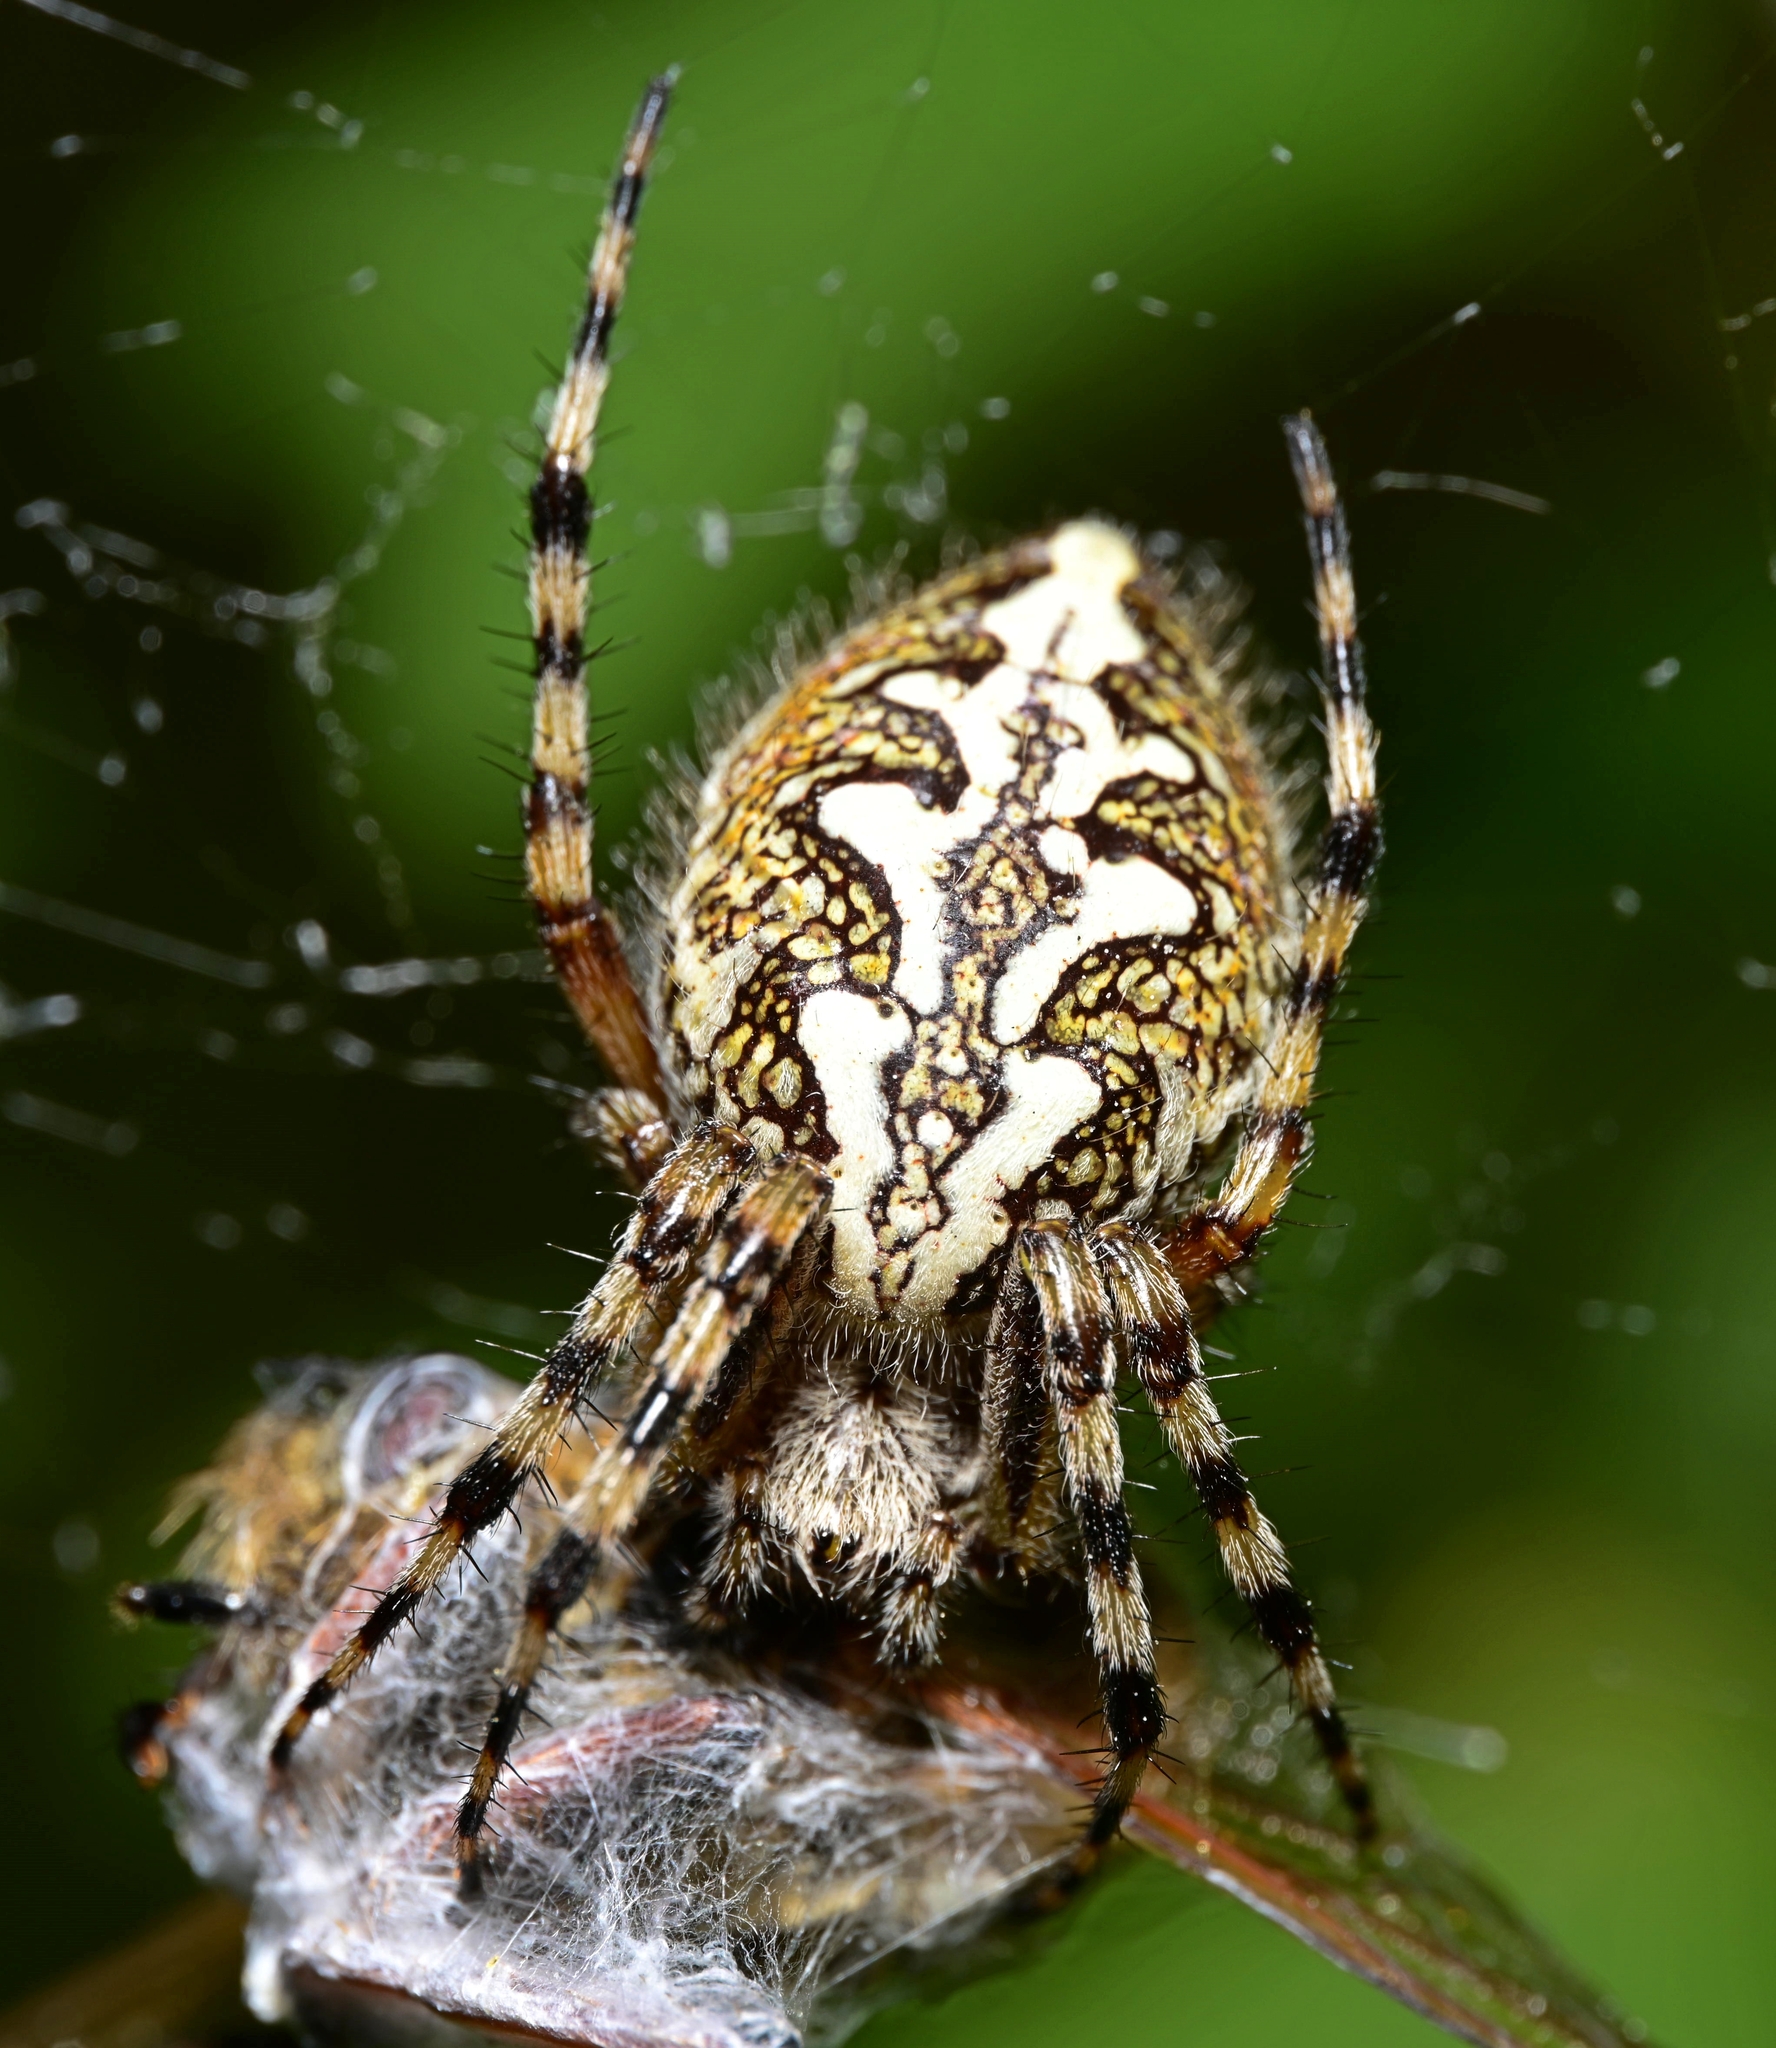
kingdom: Animalia
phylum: Arthropoda
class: Arachnida
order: Araneae
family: Araneidae
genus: Aculepeira
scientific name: Aculepeira ceropegia
